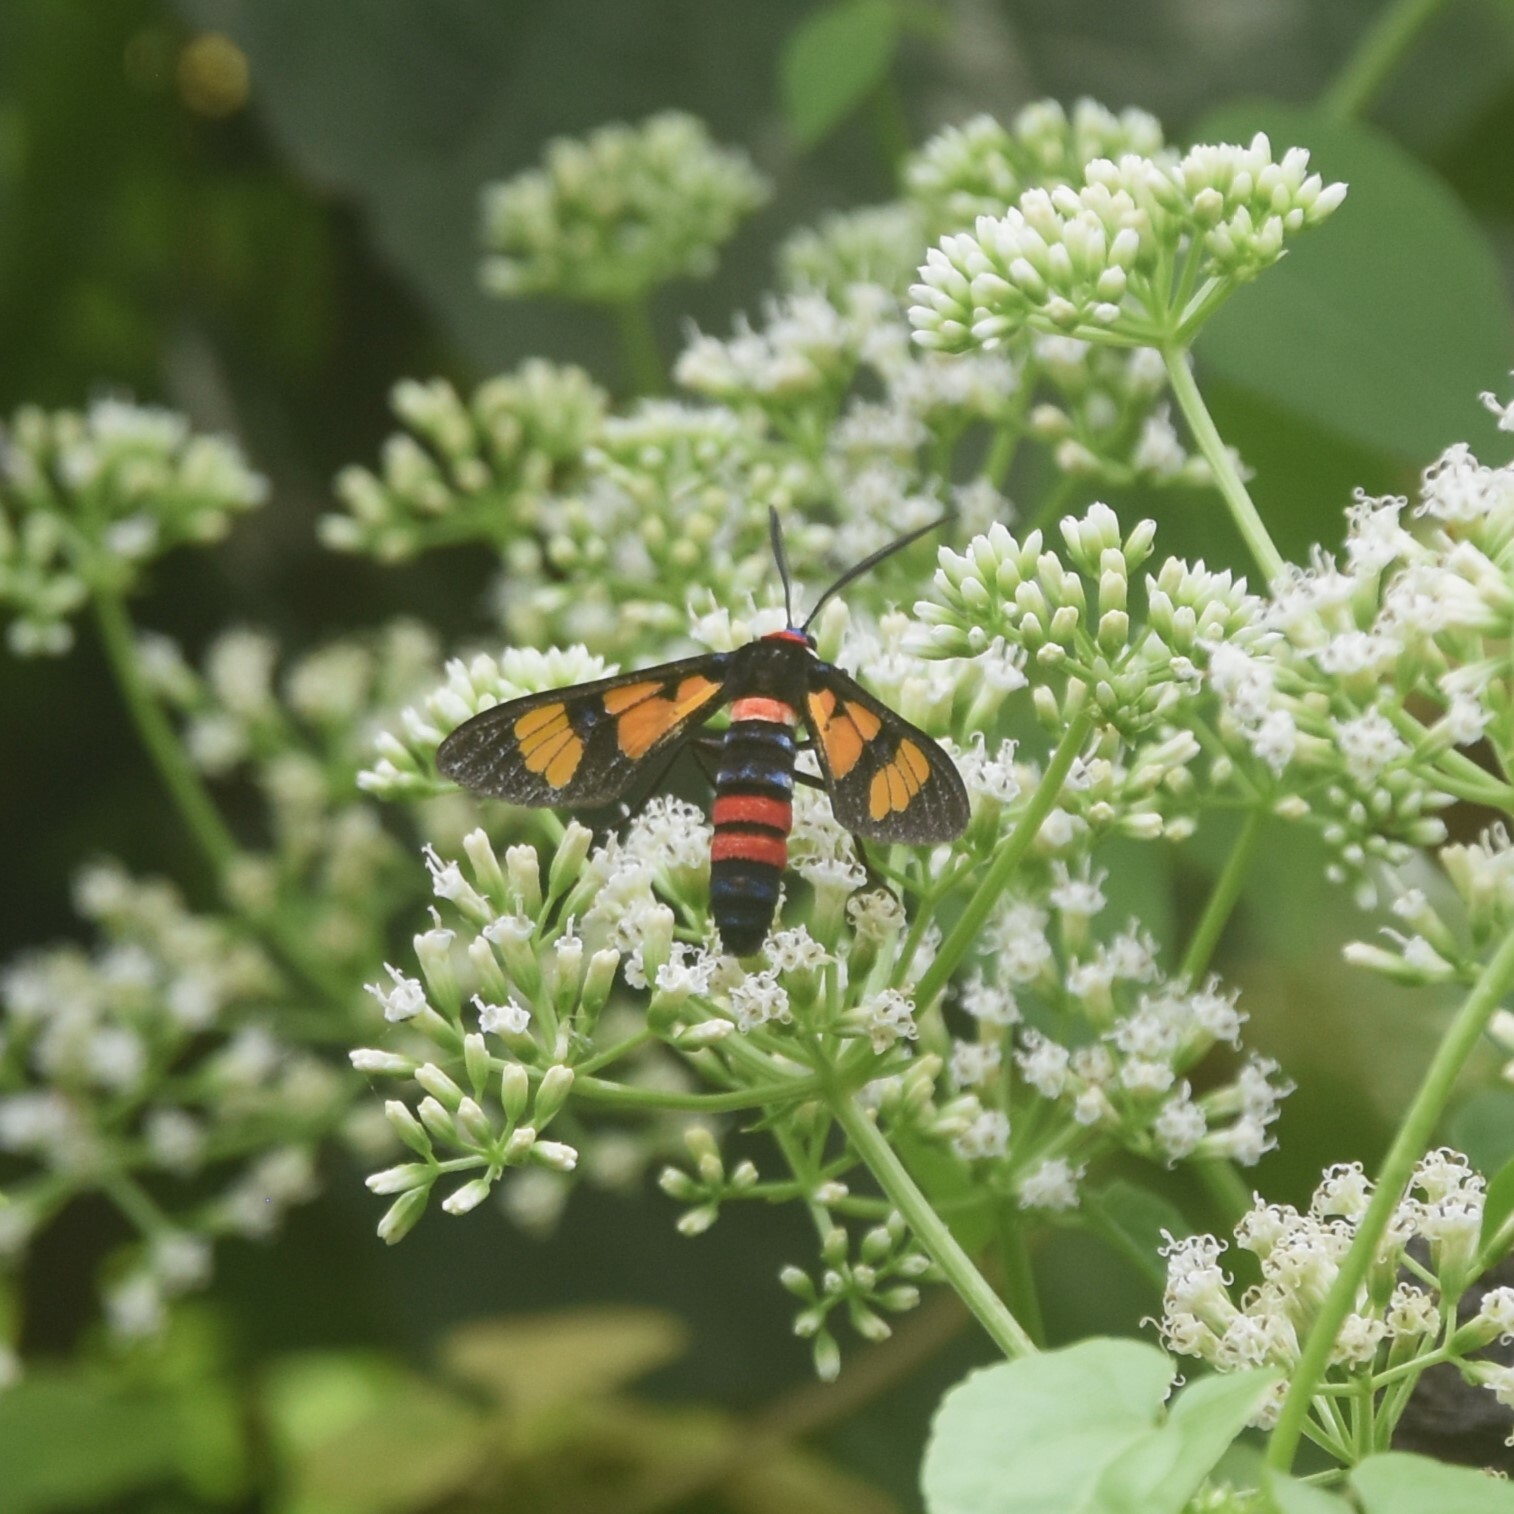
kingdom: Animalia
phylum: Arthropoda
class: Insecta
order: Lepidoptera
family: Erebidae
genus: Euchromia
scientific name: Euchromia polymena
